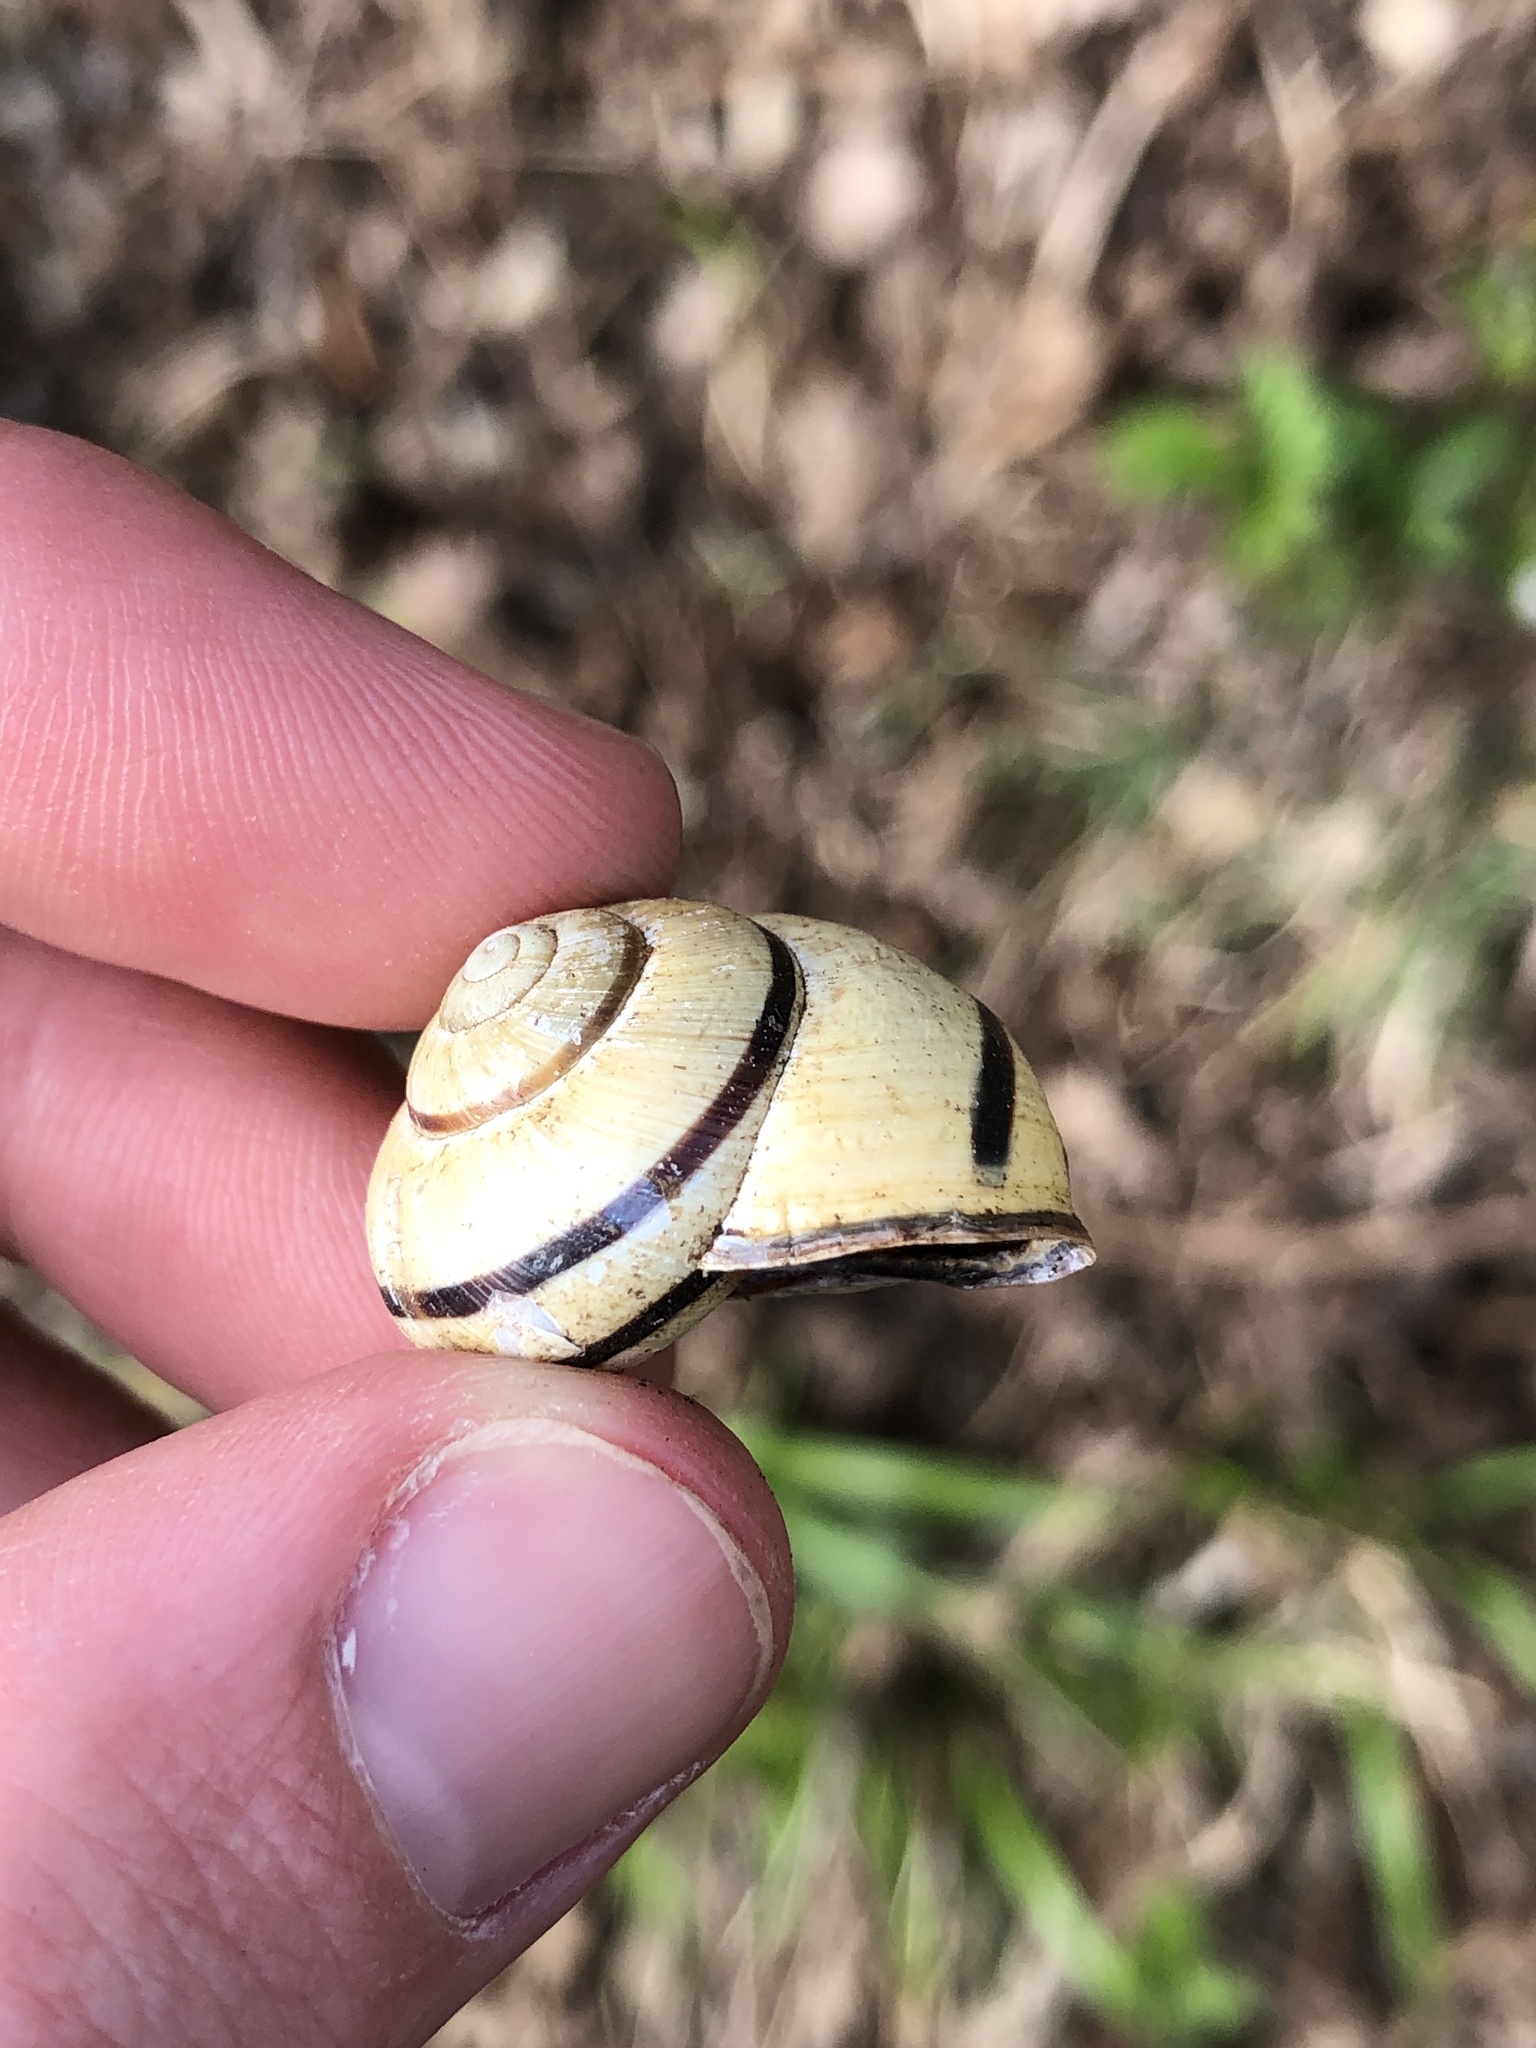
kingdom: Animalia
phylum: Mollusca
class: Gastropoda
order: Stylommatophora
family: Helicidae
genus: Cepaea
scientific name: Cepaea nemoralis
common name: Grovesnail
